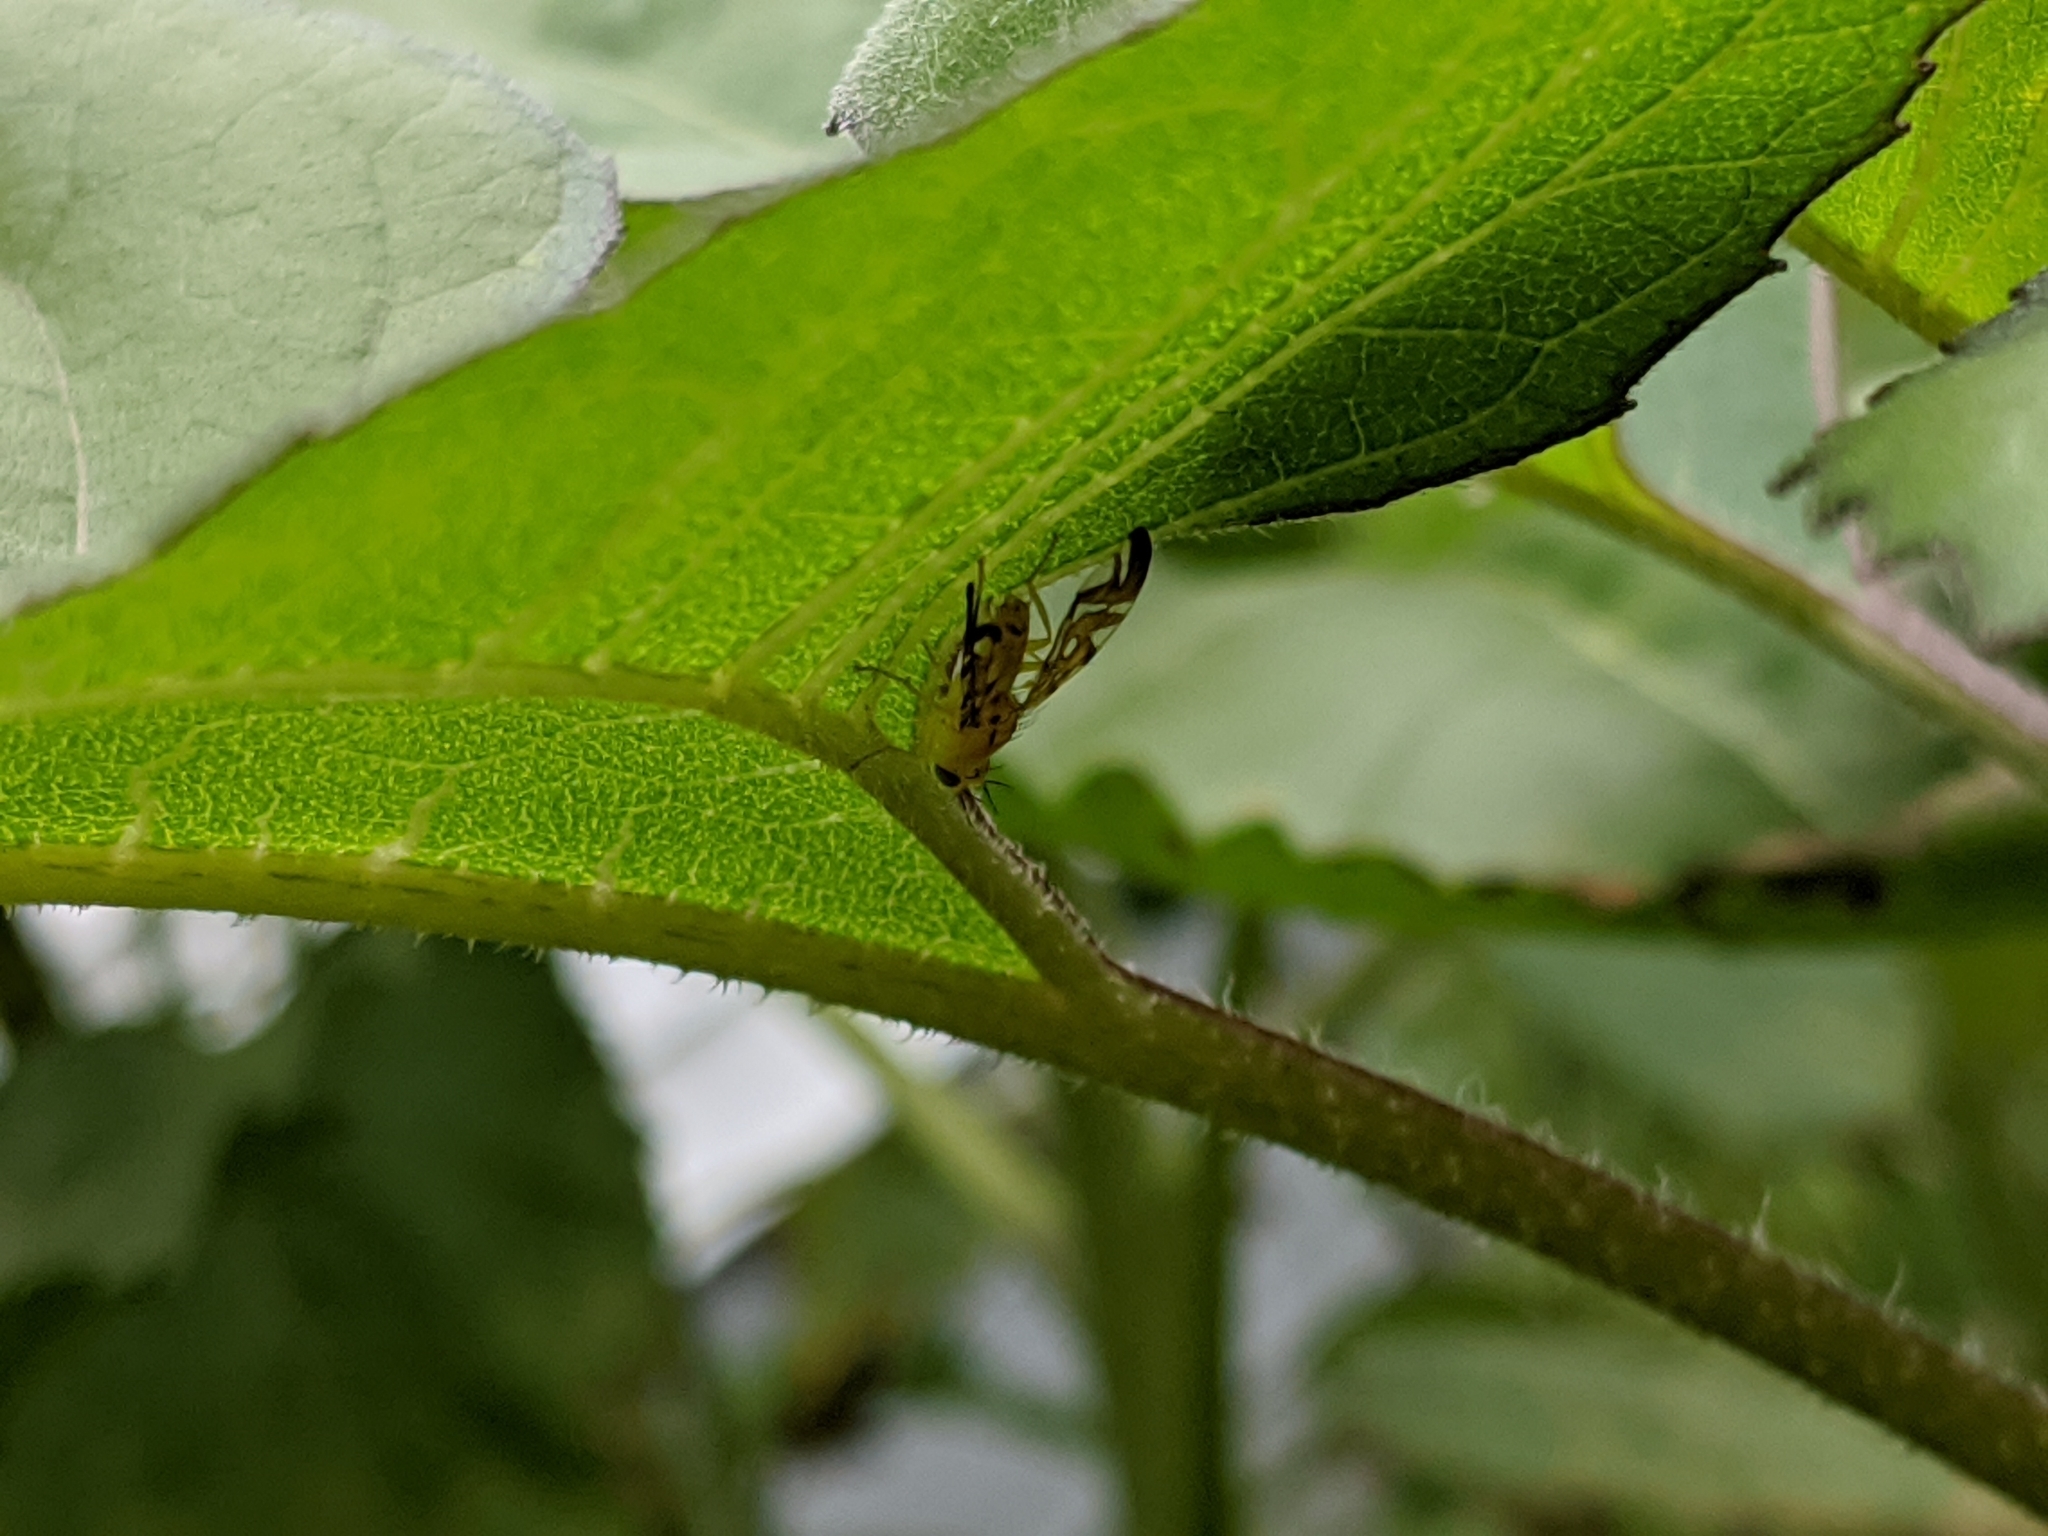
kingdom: Animalia
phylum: Arthropoda
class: Insecta
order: Diptera
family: Tephritidae
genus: Strauzia
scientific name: Strauzia longipennis
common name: Sunflower maggot
